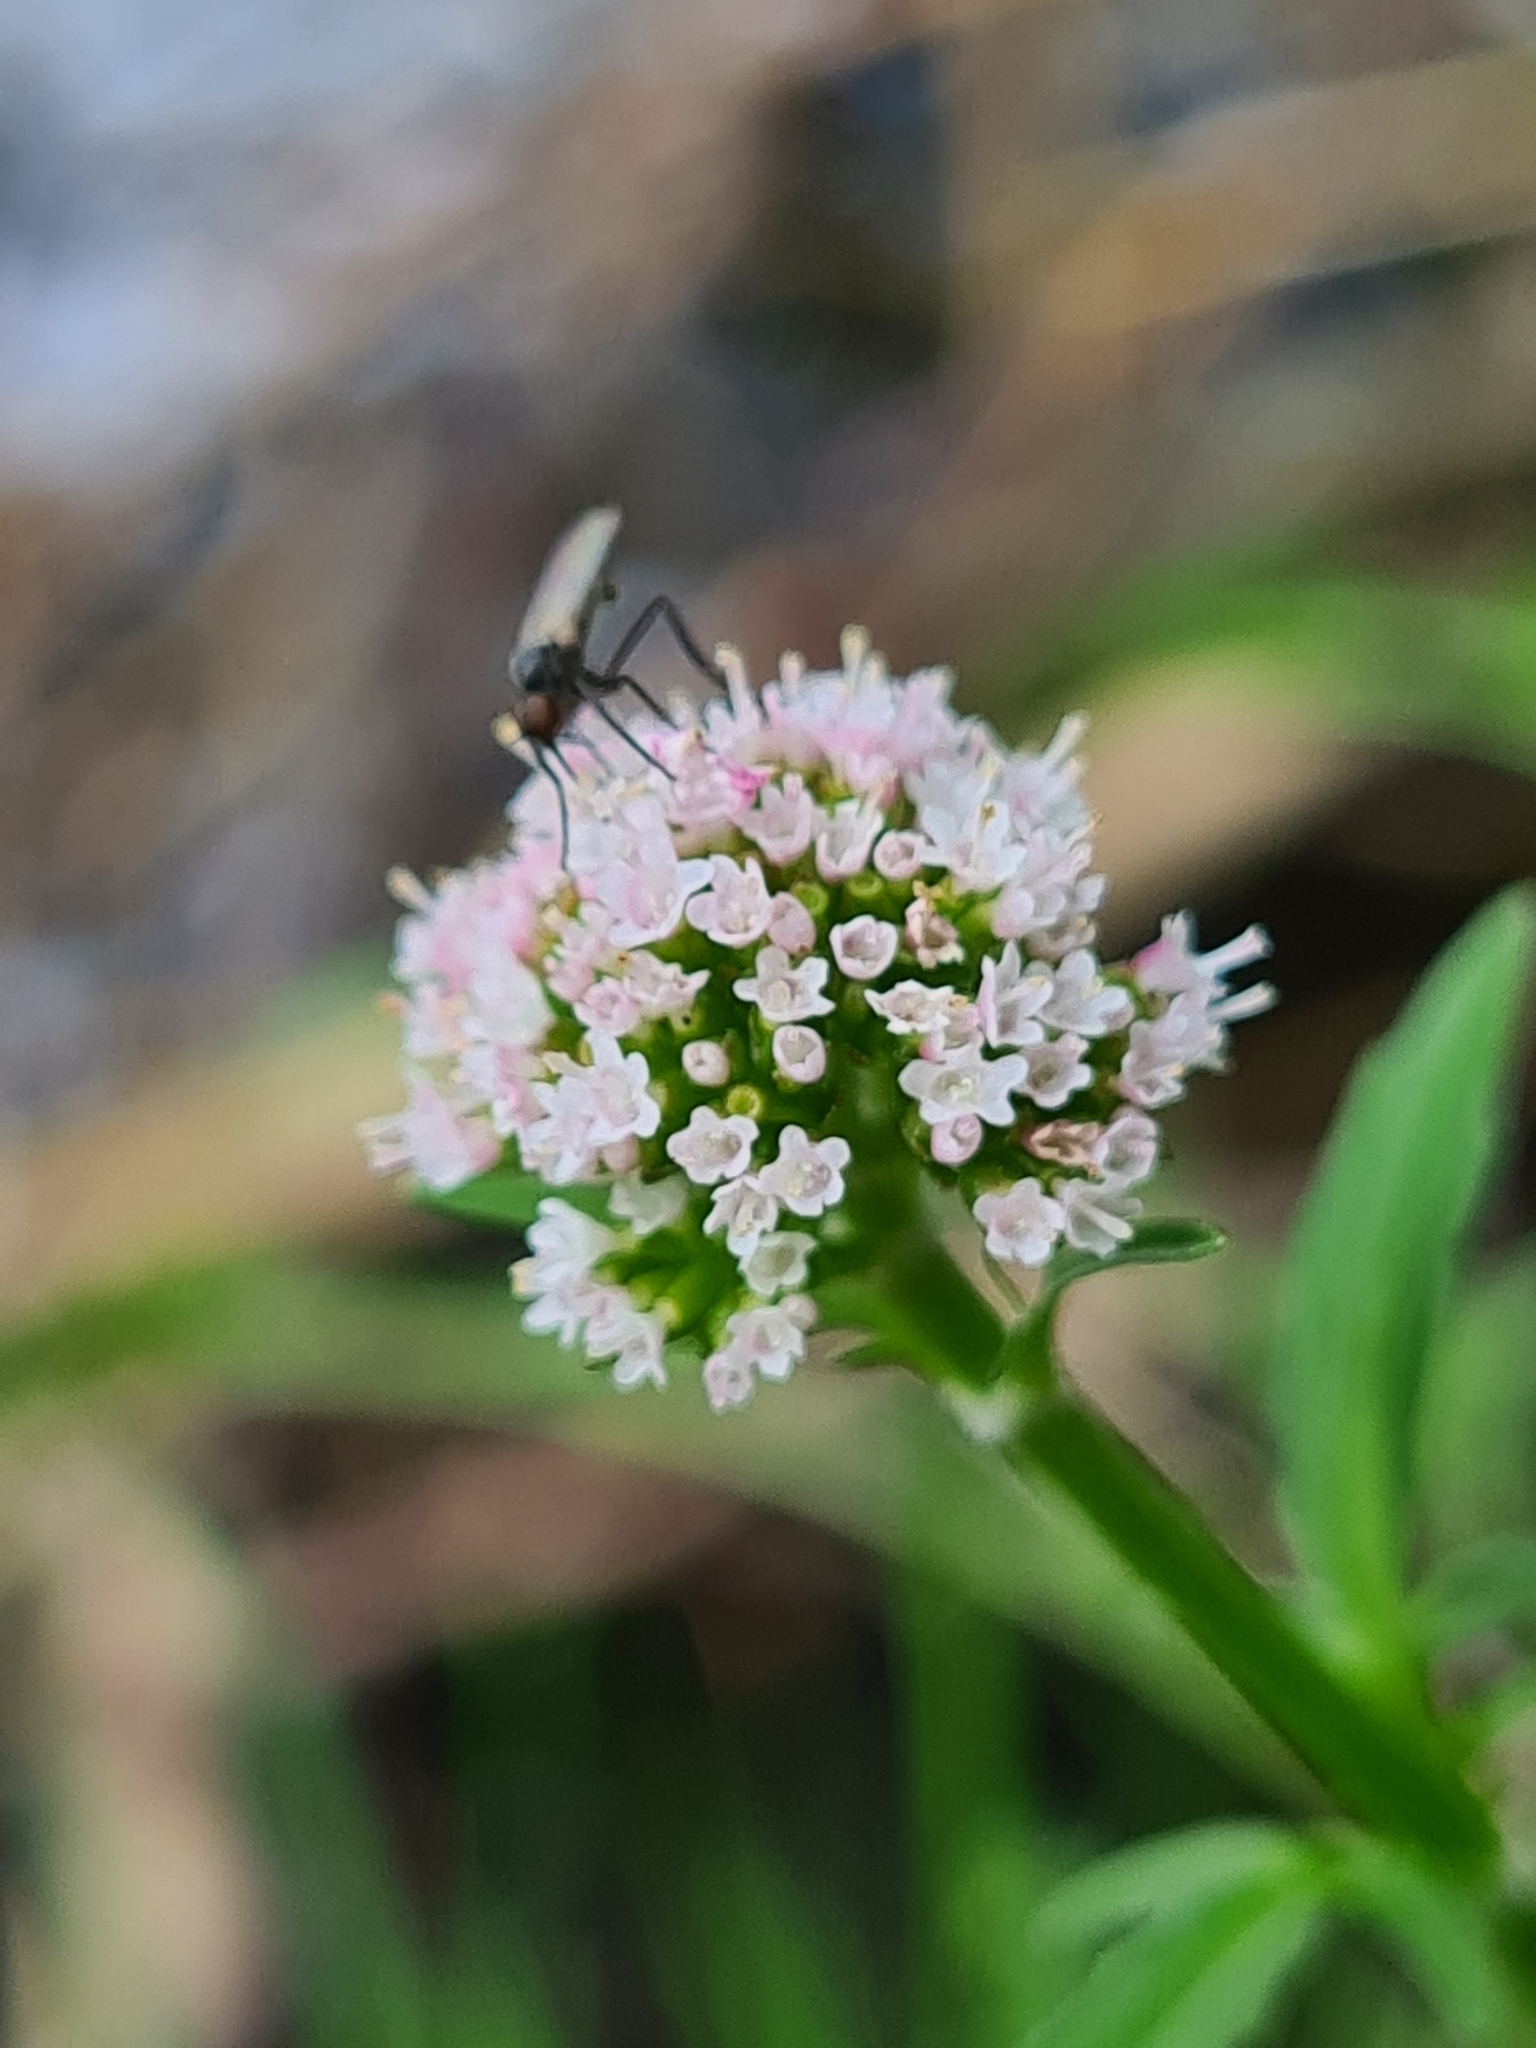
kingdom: Plantae
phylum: Tracheophyta
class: Magnoliopsida
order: Dipsacales
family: Caprifoliaceae
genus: Valeriana
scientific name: Valeriana dioica
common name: Marsh valerian
